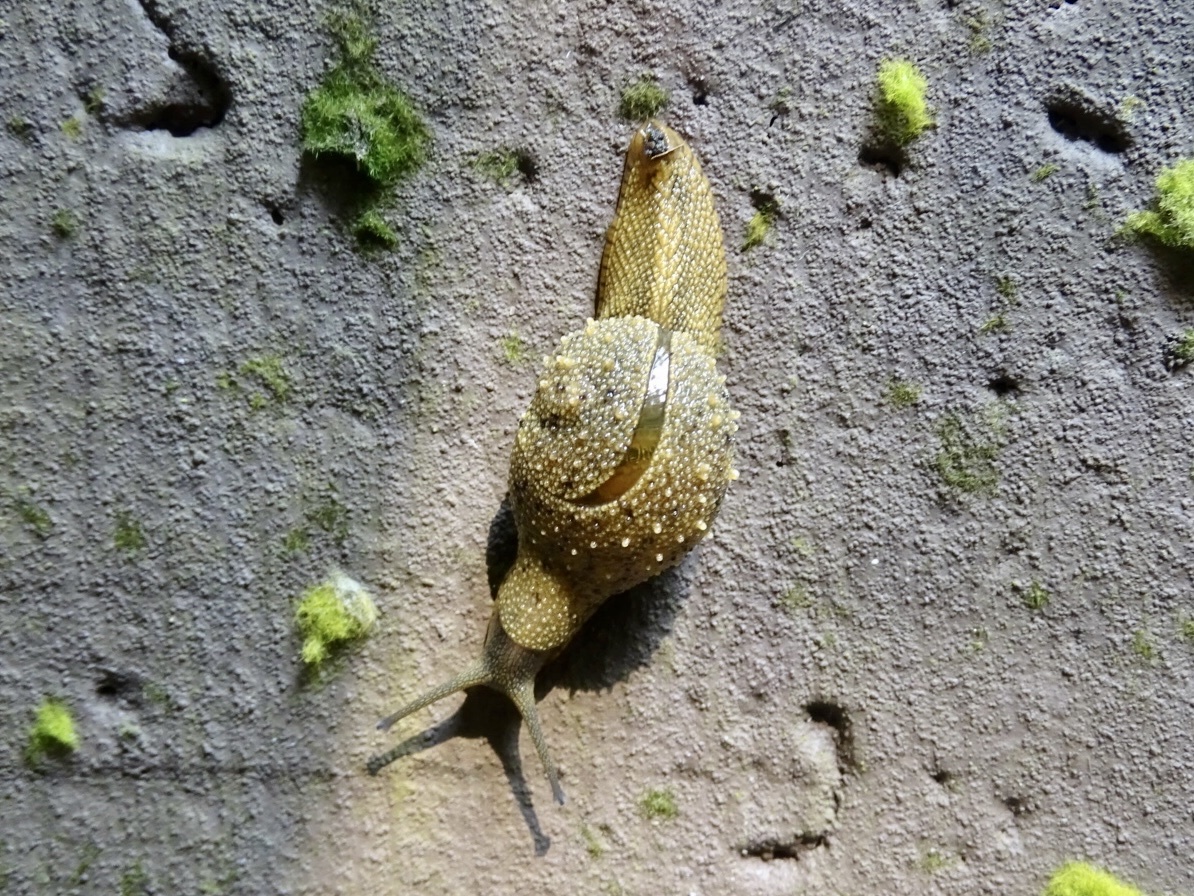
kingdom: Animalia
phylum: Mollusca
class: Gastropoda
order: Stylommatophora
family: Ariophantidae
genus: Megaustenia
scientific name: Megaustenia imperator
